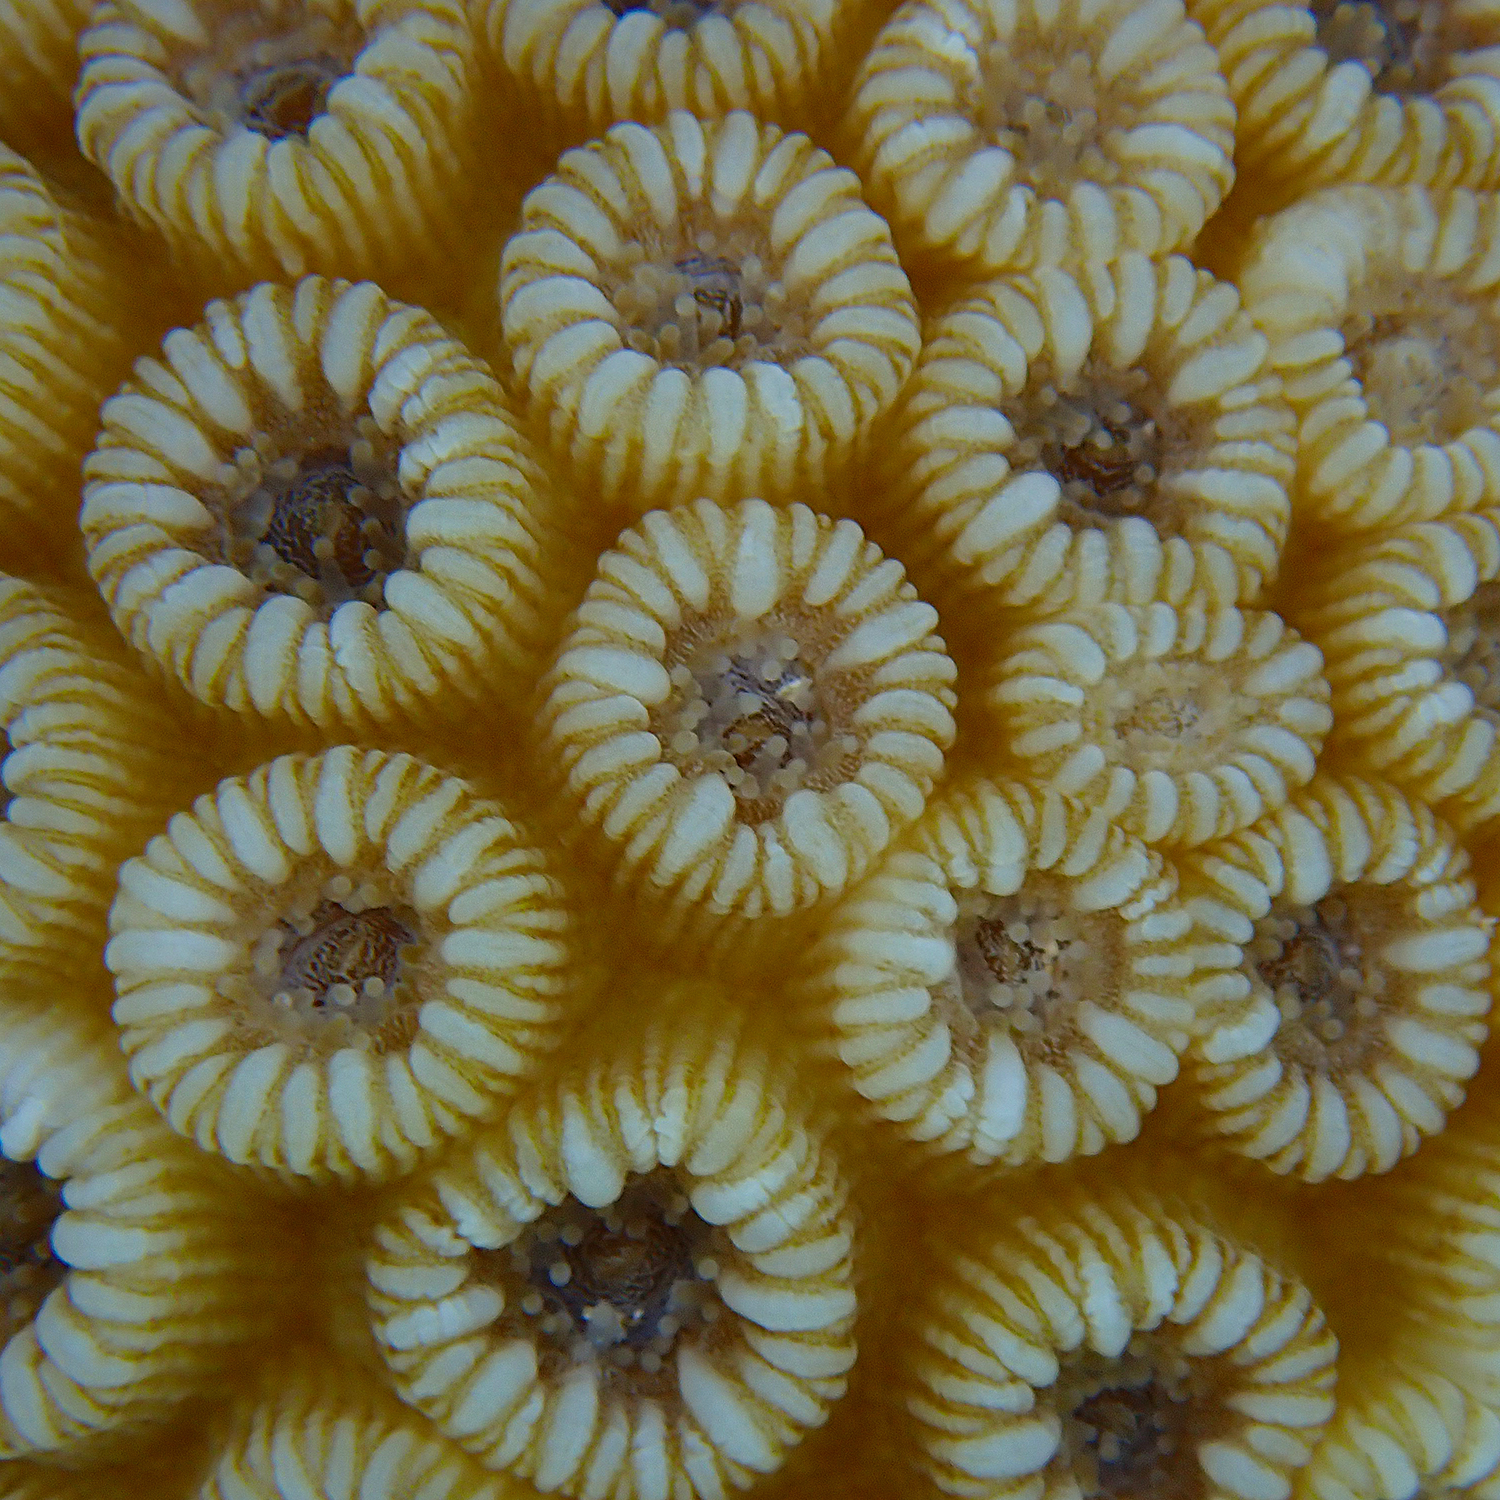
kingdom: Animalia
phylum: Cnidaria
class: Anthozoa
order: Scleractinia
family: Merulinidae
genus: Astrea
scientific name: Astrea curta
